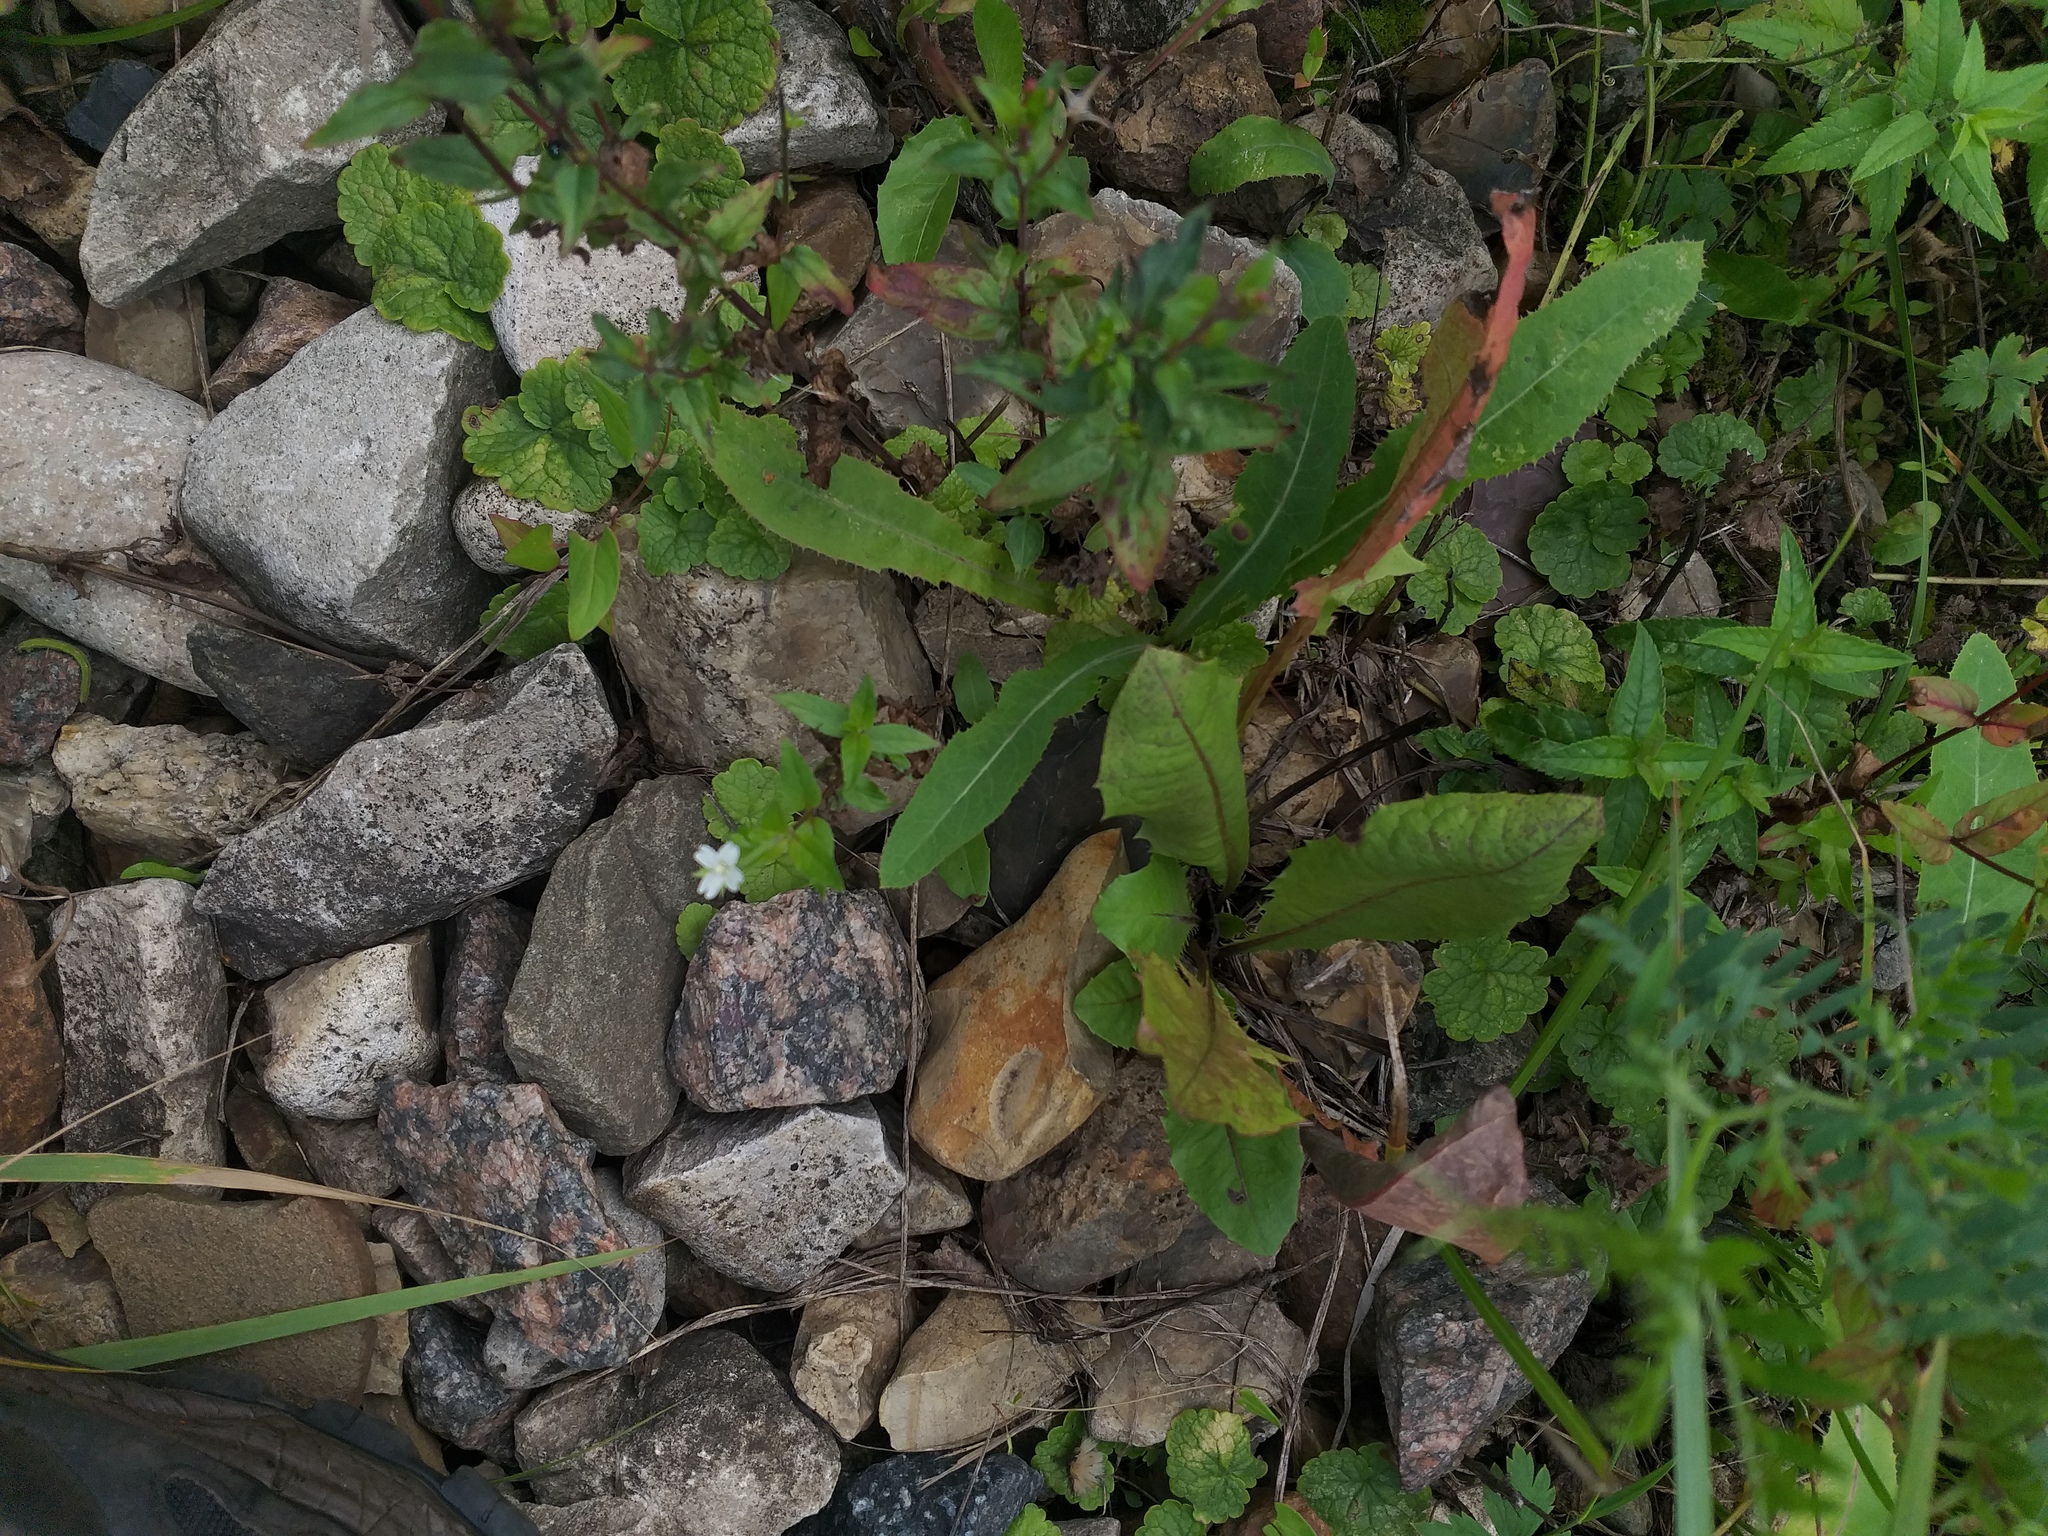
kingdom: Plantae
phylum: Tracheophyta
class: Magnoliopsida
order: Myrtales
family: Onagraceae
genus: Epilobium
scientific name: Epilobium pseudorubescens
